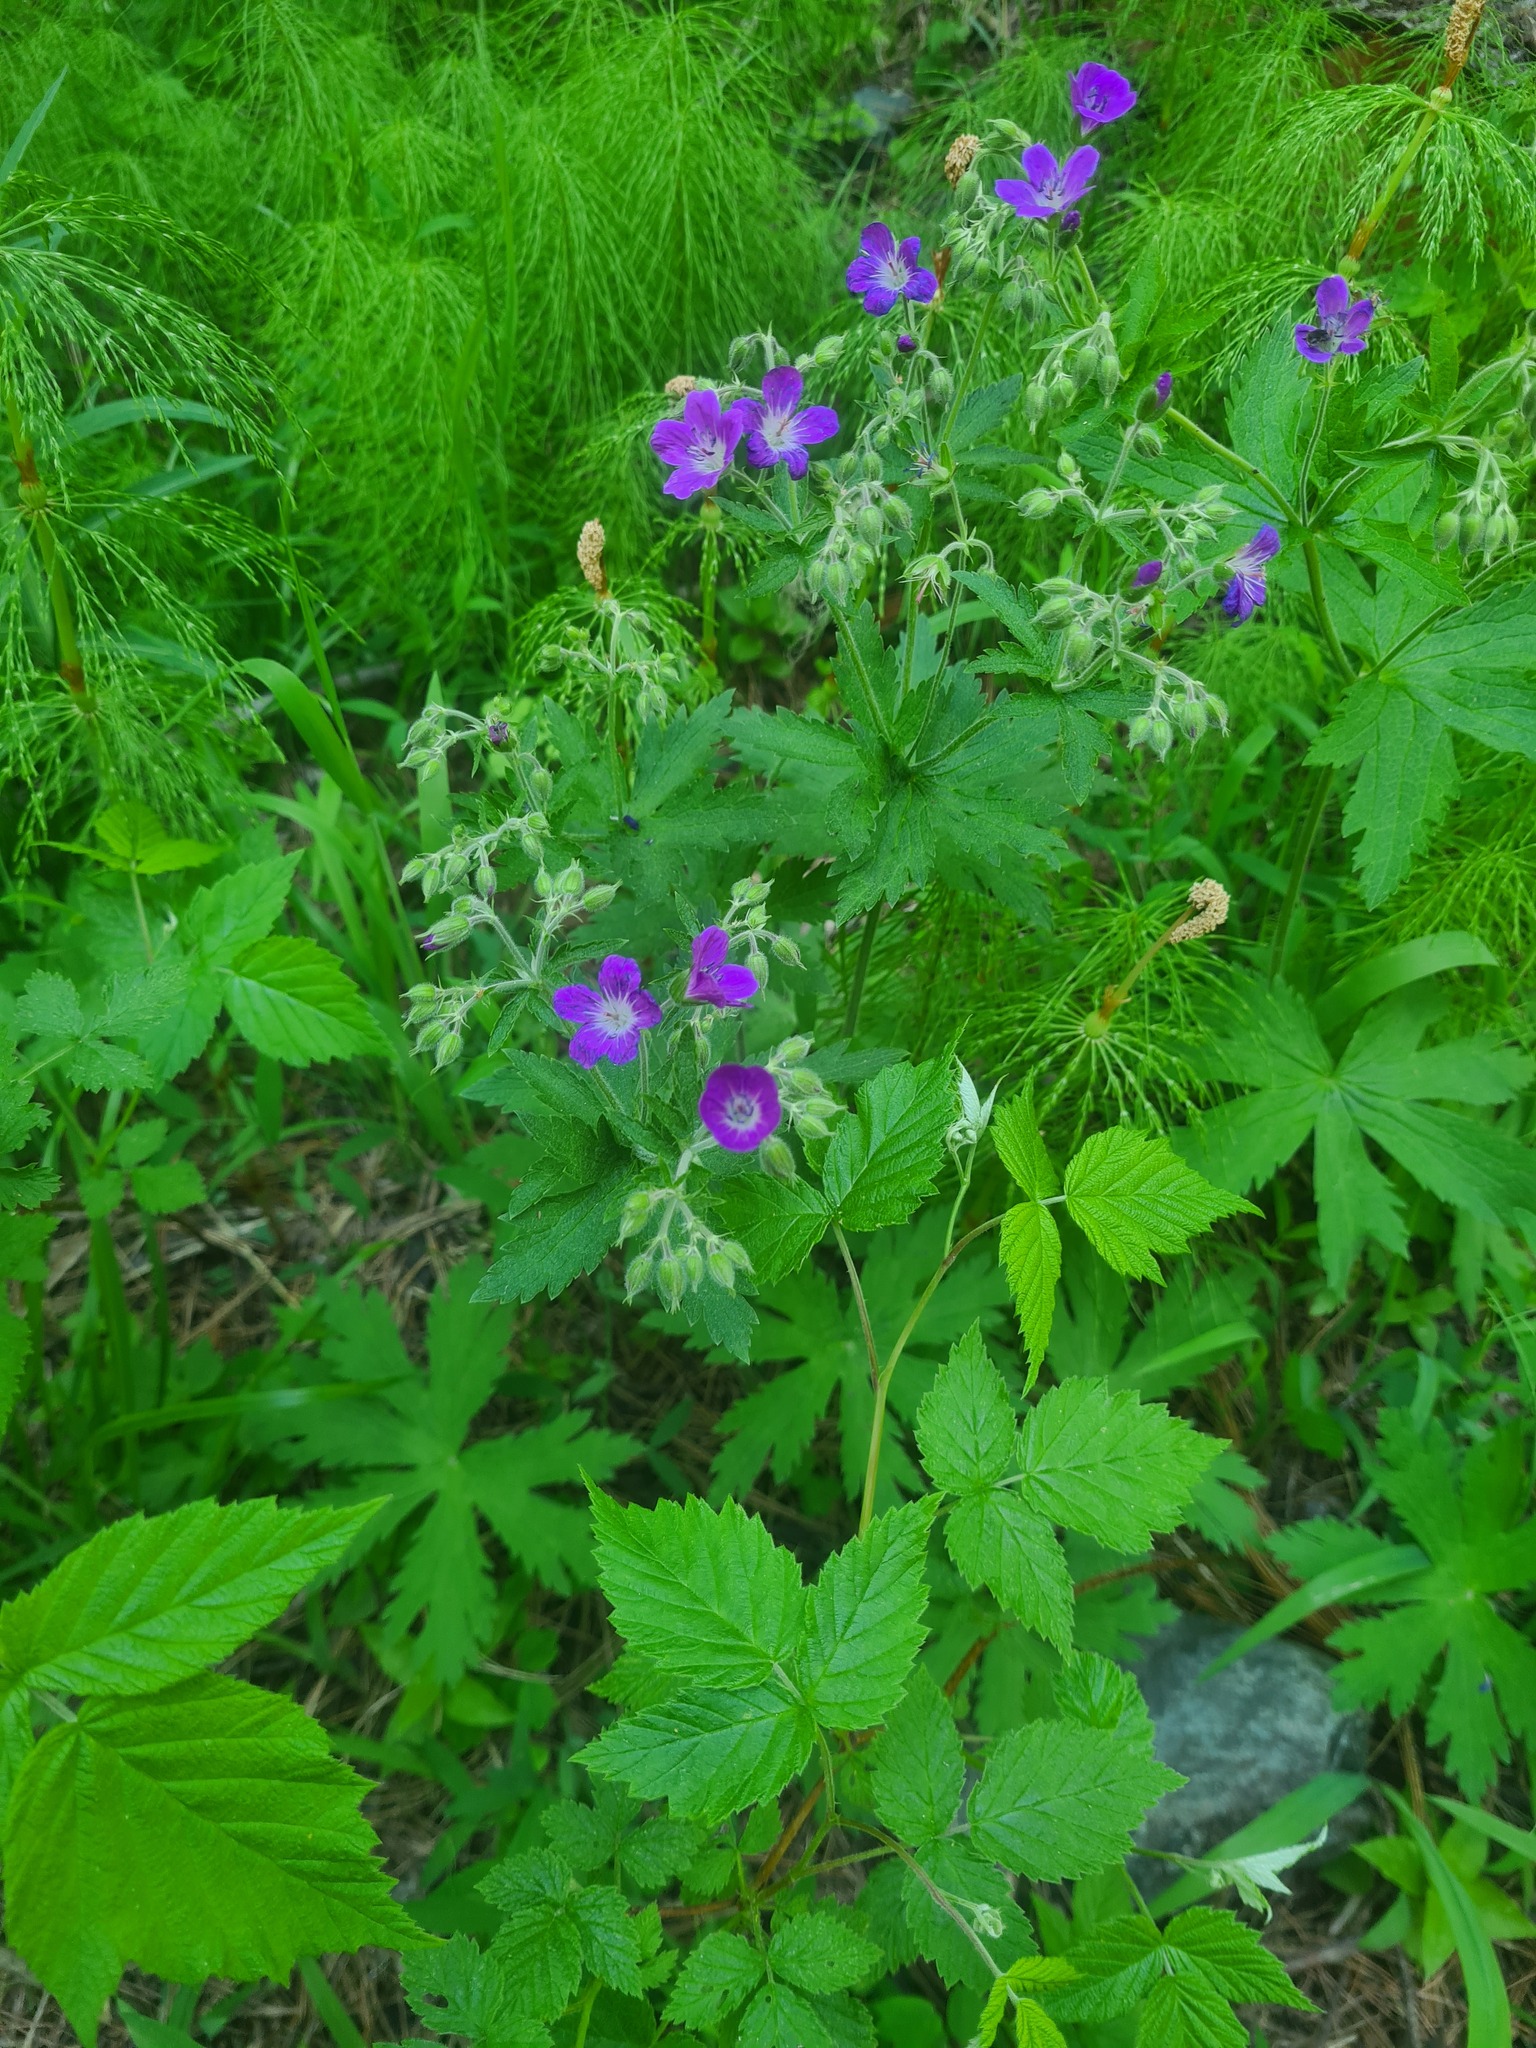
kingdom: Plantae
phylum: Tracheophyta
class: Magnoliopsida
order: Geraniales
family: Geraniaceae
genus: Geranium
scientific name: Geranium sylvaticum
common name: Wood crane's-bill
